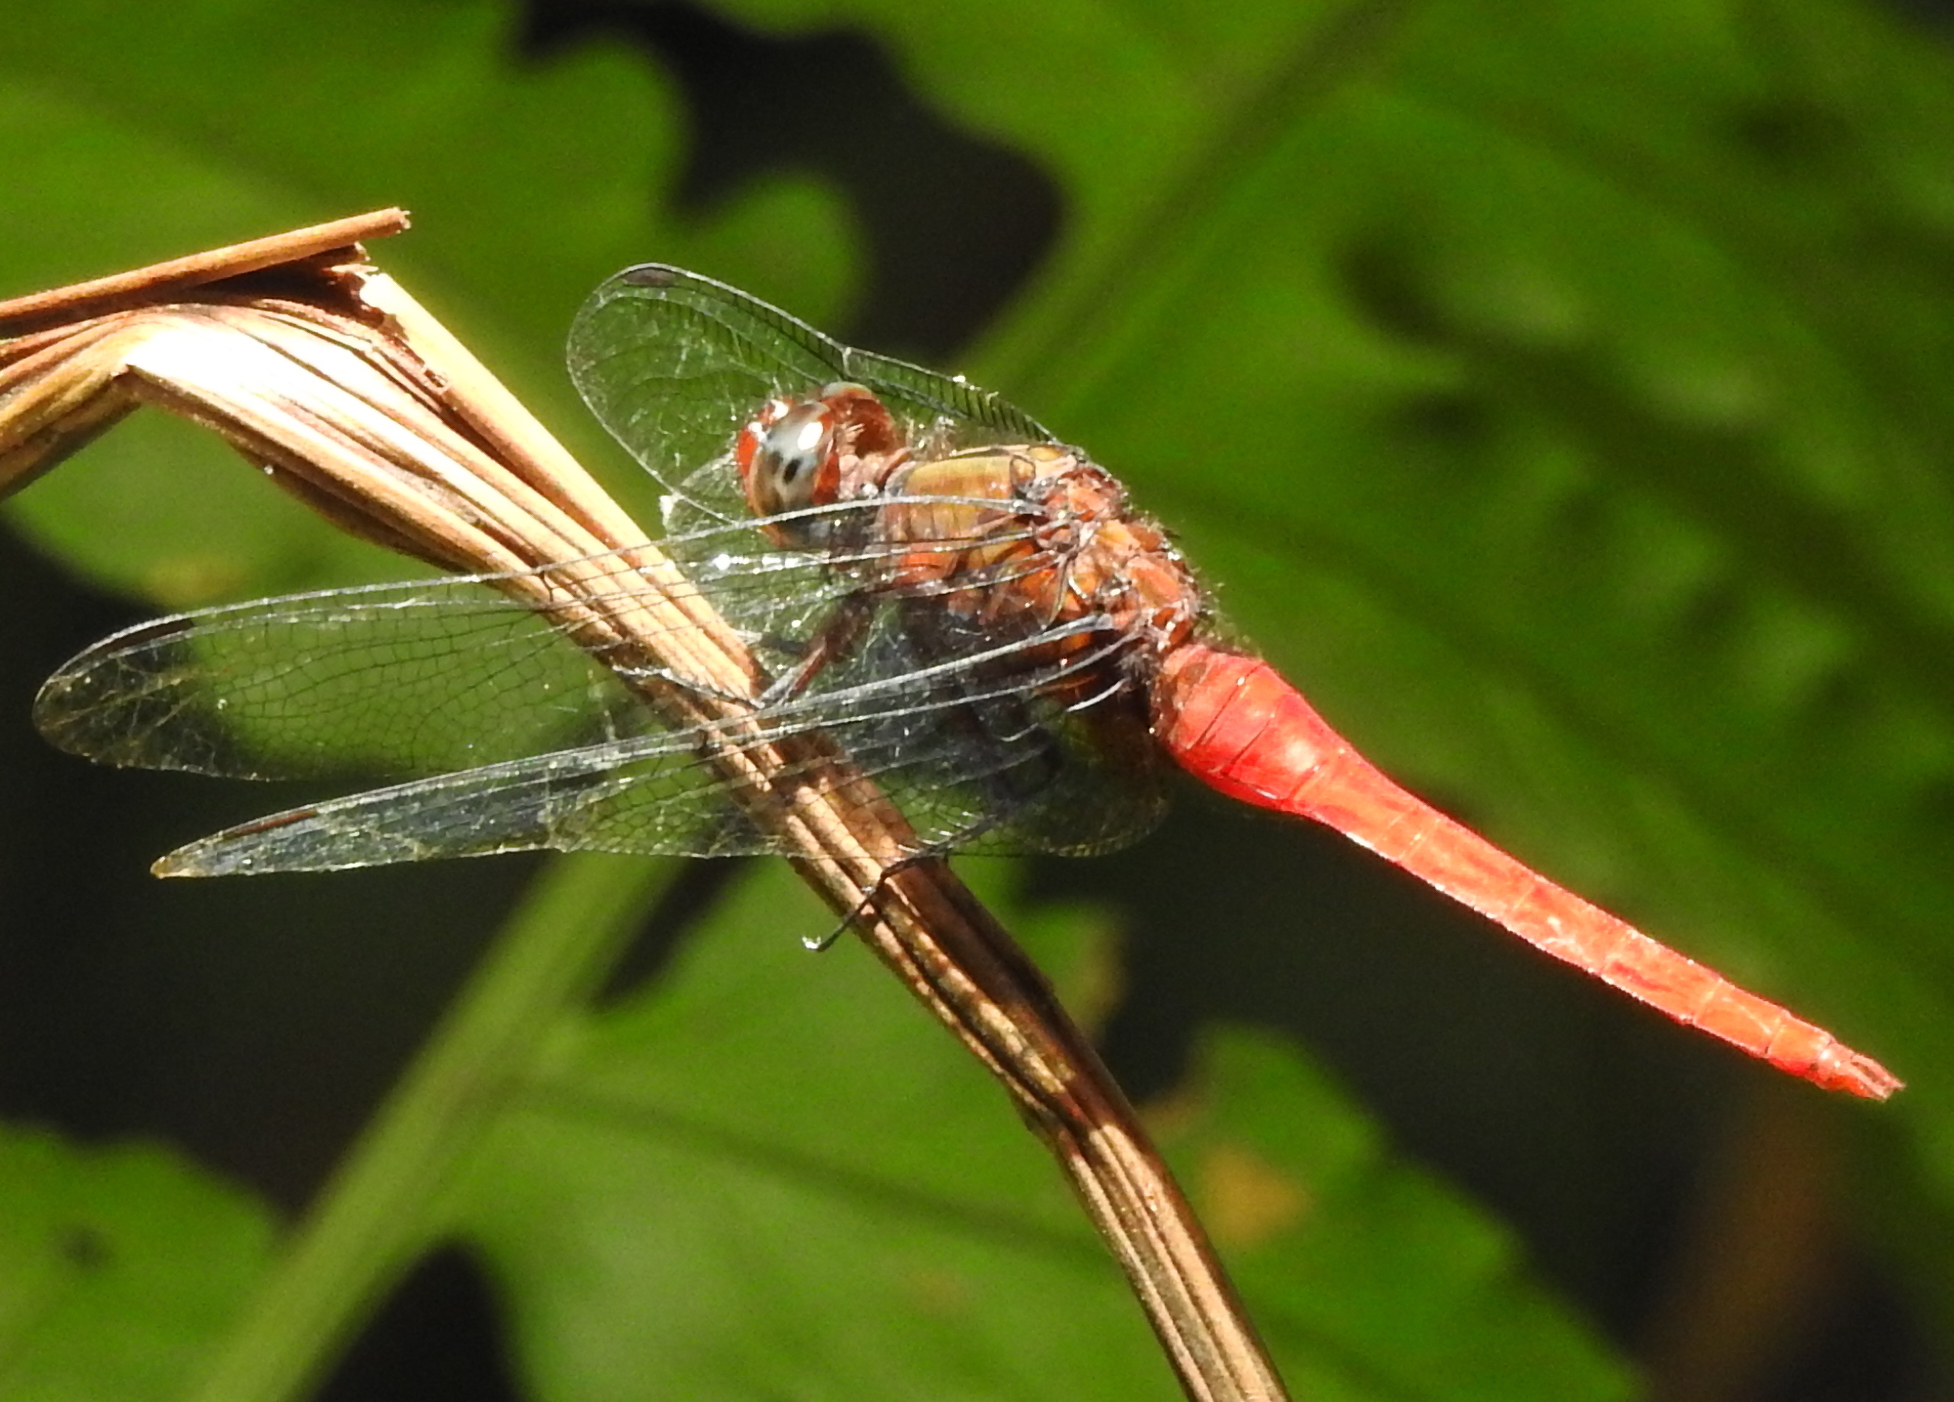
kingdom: Animalia
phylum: Arthropoda
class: Insecta
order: Odonata
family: Libellulidae
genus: Orthetrum
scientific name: Orthetrum testaceum
